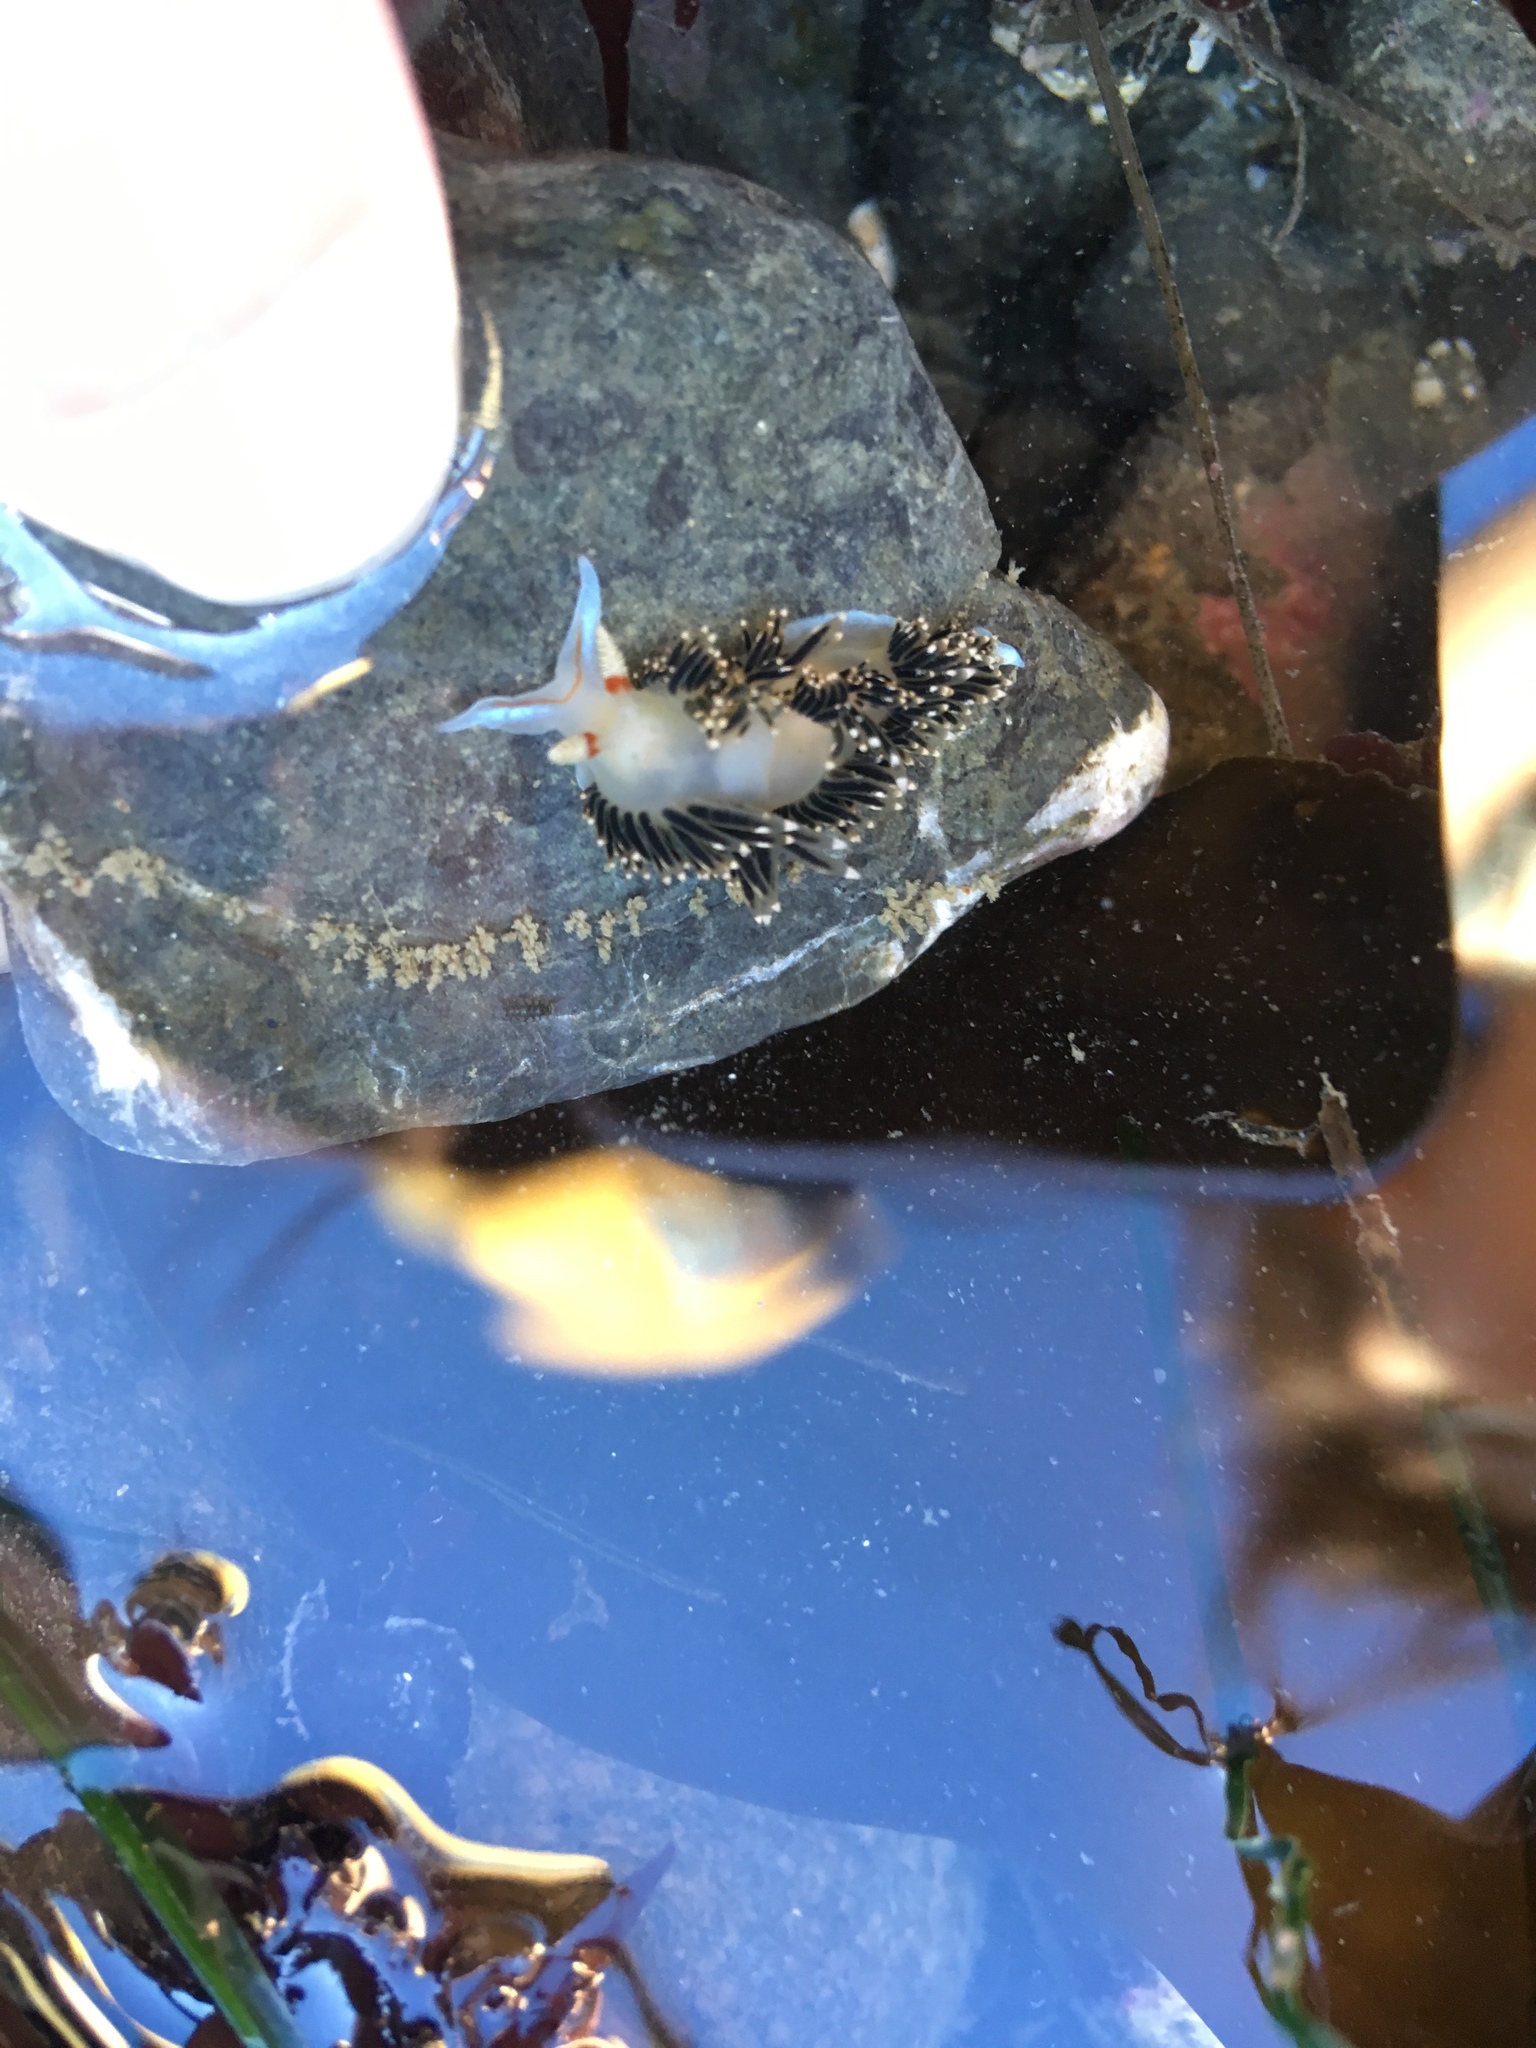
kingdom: Animalia
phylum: Mollusca
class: Gastropoda
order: Nudibranchia
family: Facelinidae
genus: Phidiana
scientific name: Phidiana hiltoni
